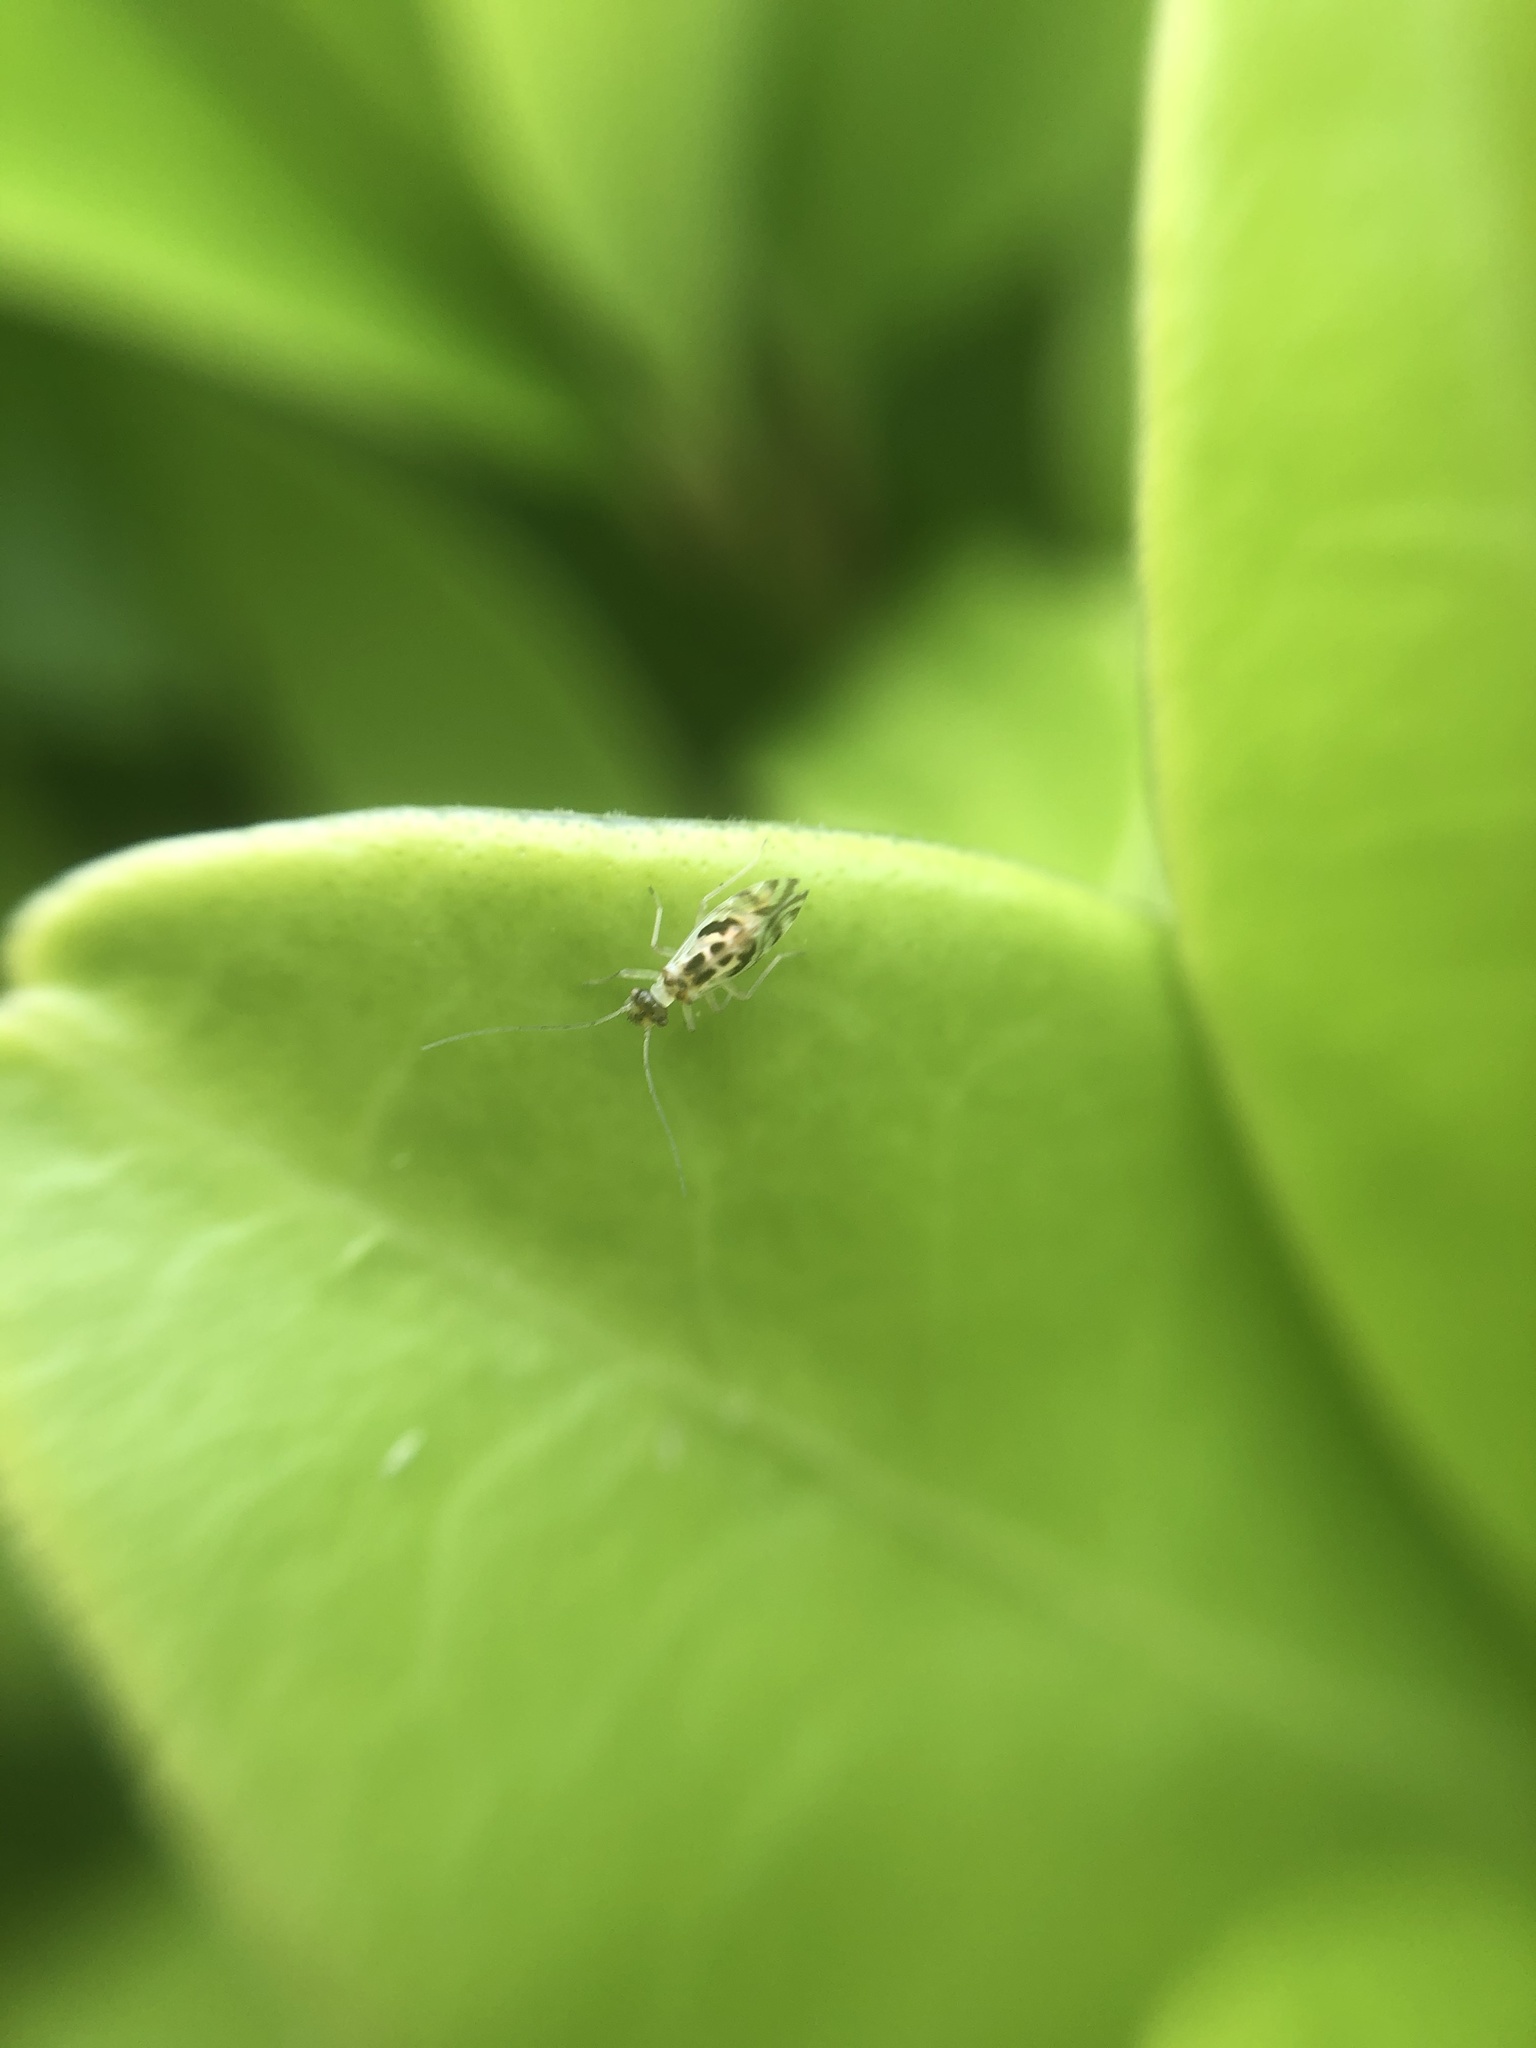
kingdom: Animalia
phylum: Arthropoda
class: Insecta
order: Psocodea
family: Stenopsocidae
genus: Graphopsocus
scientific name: Graphopsocus cruciatus
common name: Lizard bark louse
